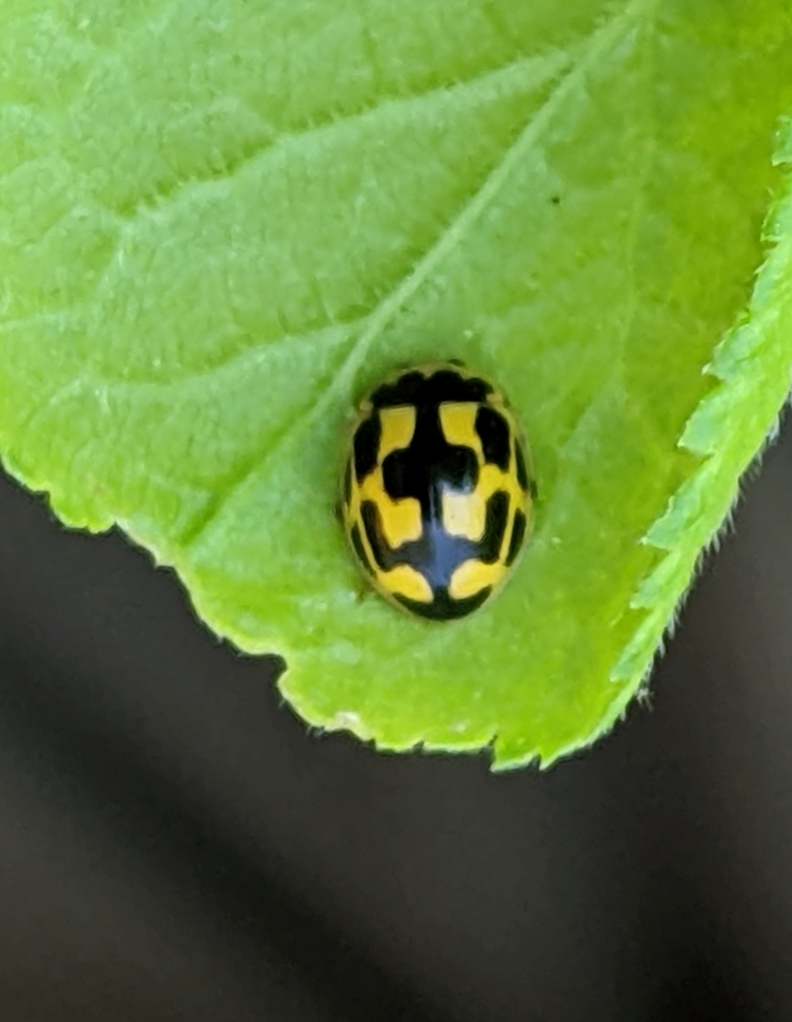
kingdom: Animalia
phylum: Arthropoda
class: Insecta
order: Coleoptera
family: Coccinellidae
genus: Propylaea
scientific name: Propylaea quatuordecimpunctata
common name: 14-spotted ladybird beetle
